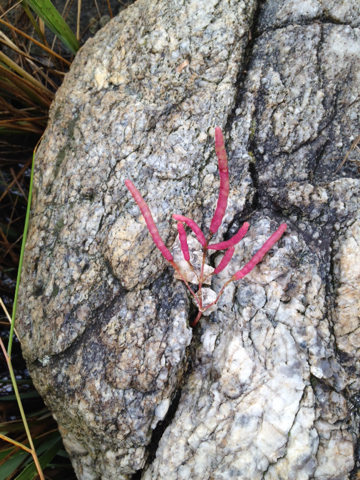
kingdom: Plantae
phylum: Tracheophyta
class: Magnoliopsida
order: Caryophyllales
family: Amaranthaceae
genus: Salicornia
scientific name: Salicornia virginica
